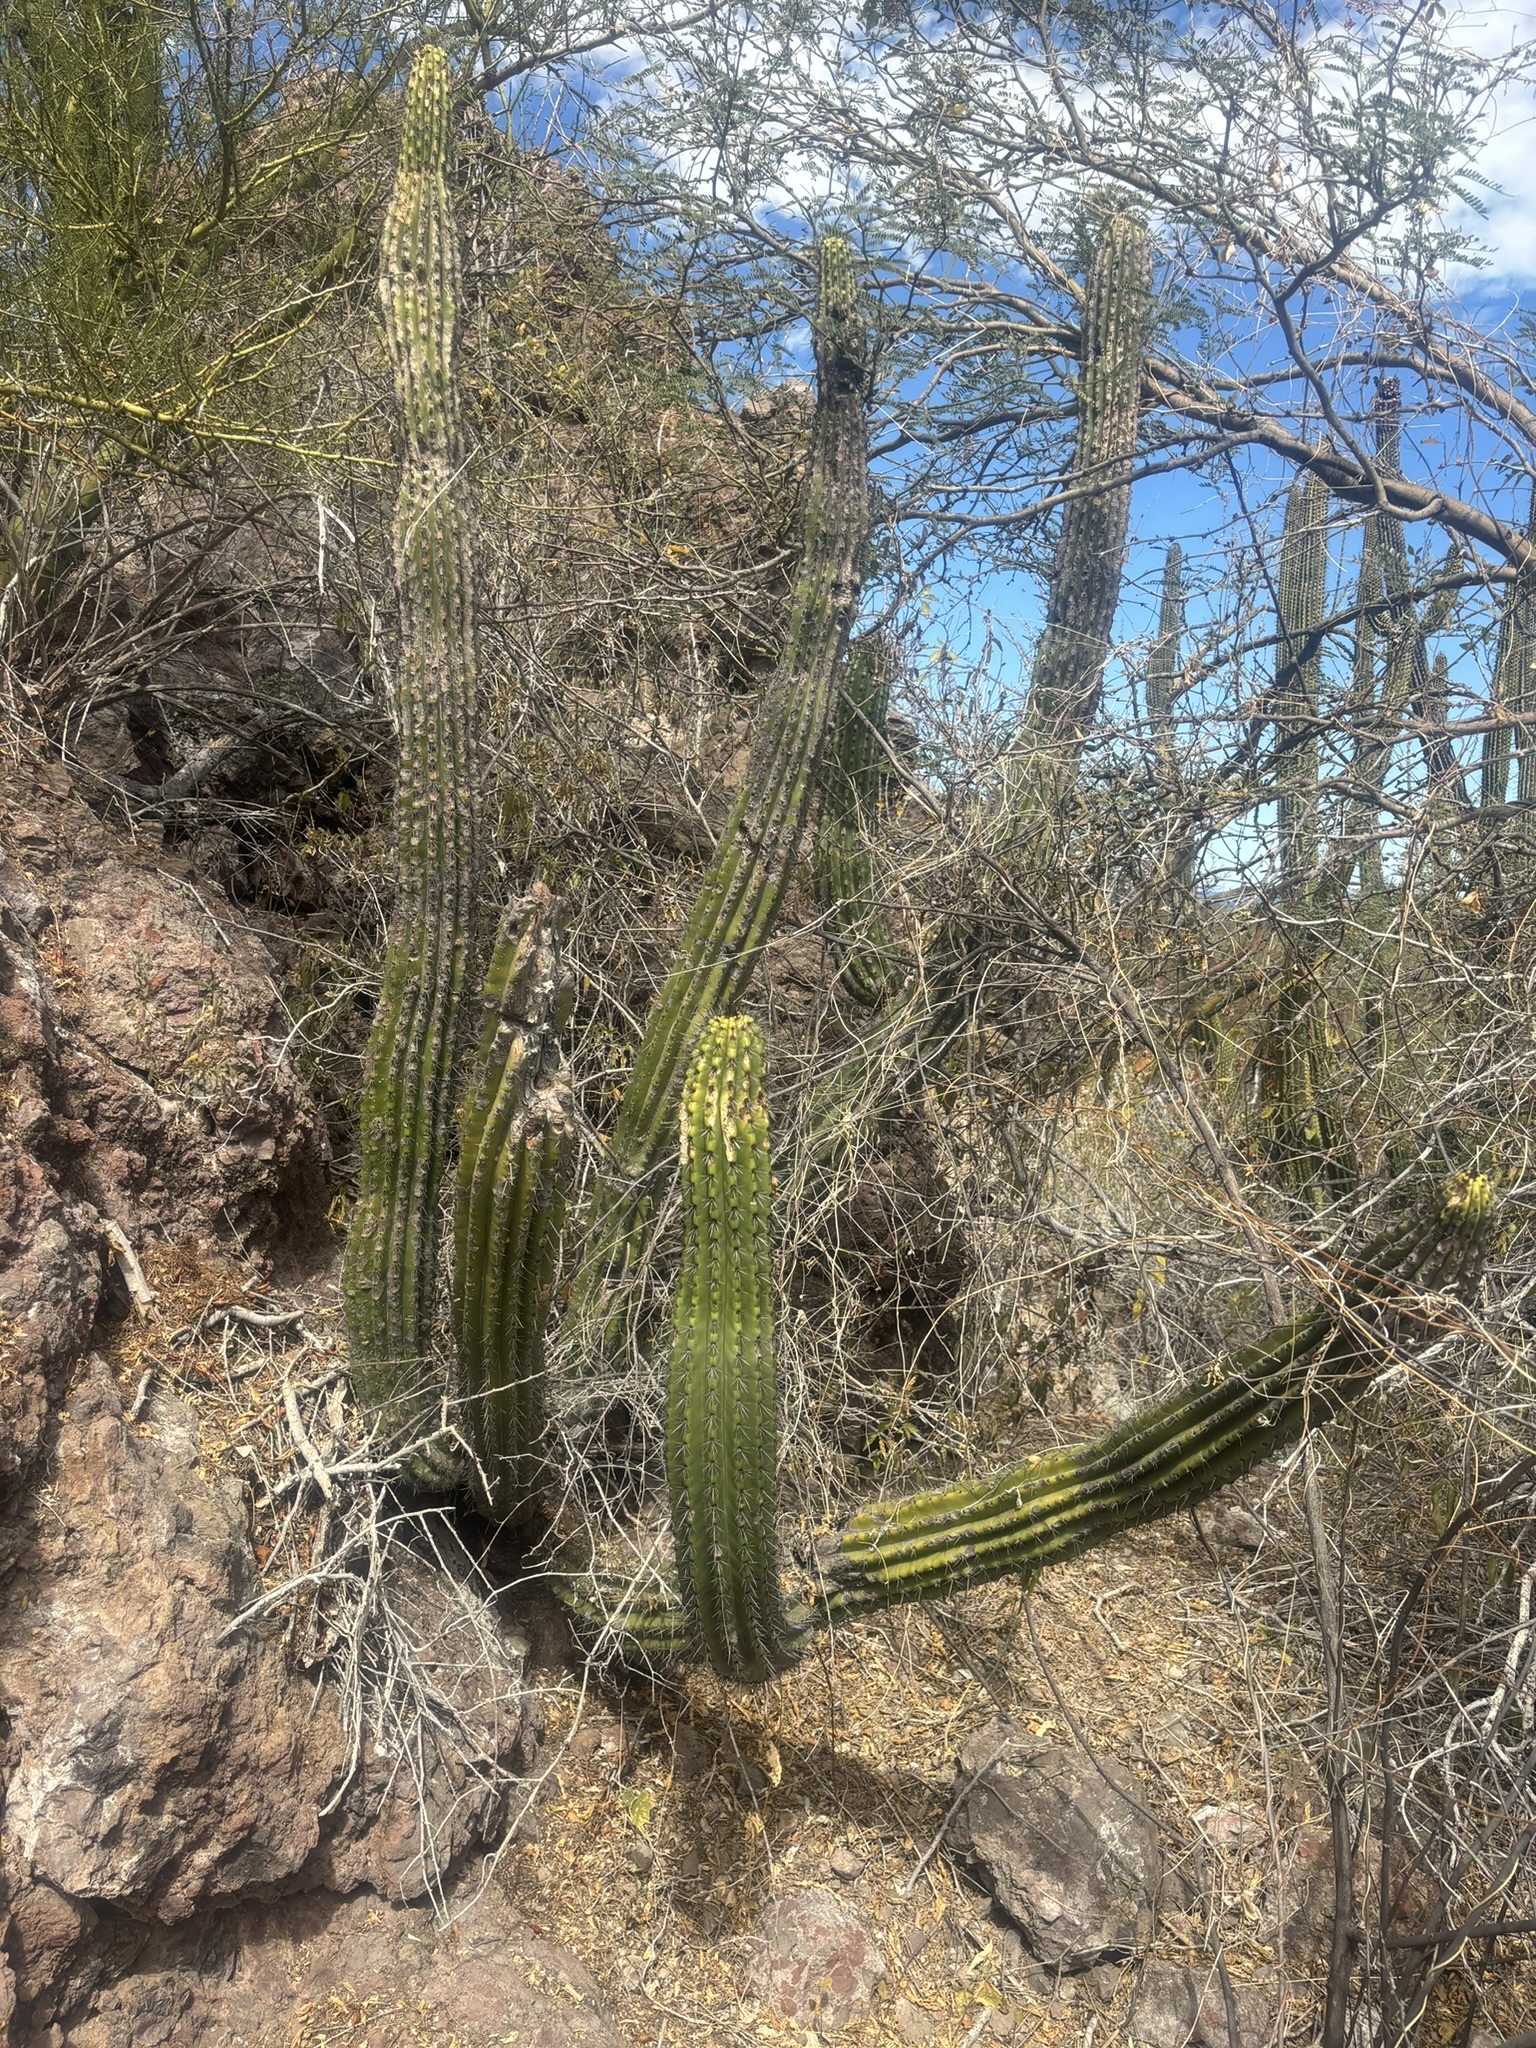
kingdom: Plantae
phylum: Tracheophyta
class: Magnoliopsida
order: Caryophyllales
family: Cactaceae
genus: Stenocereus
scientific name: Stenocereus thurberi
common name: Organ pipe cactus
